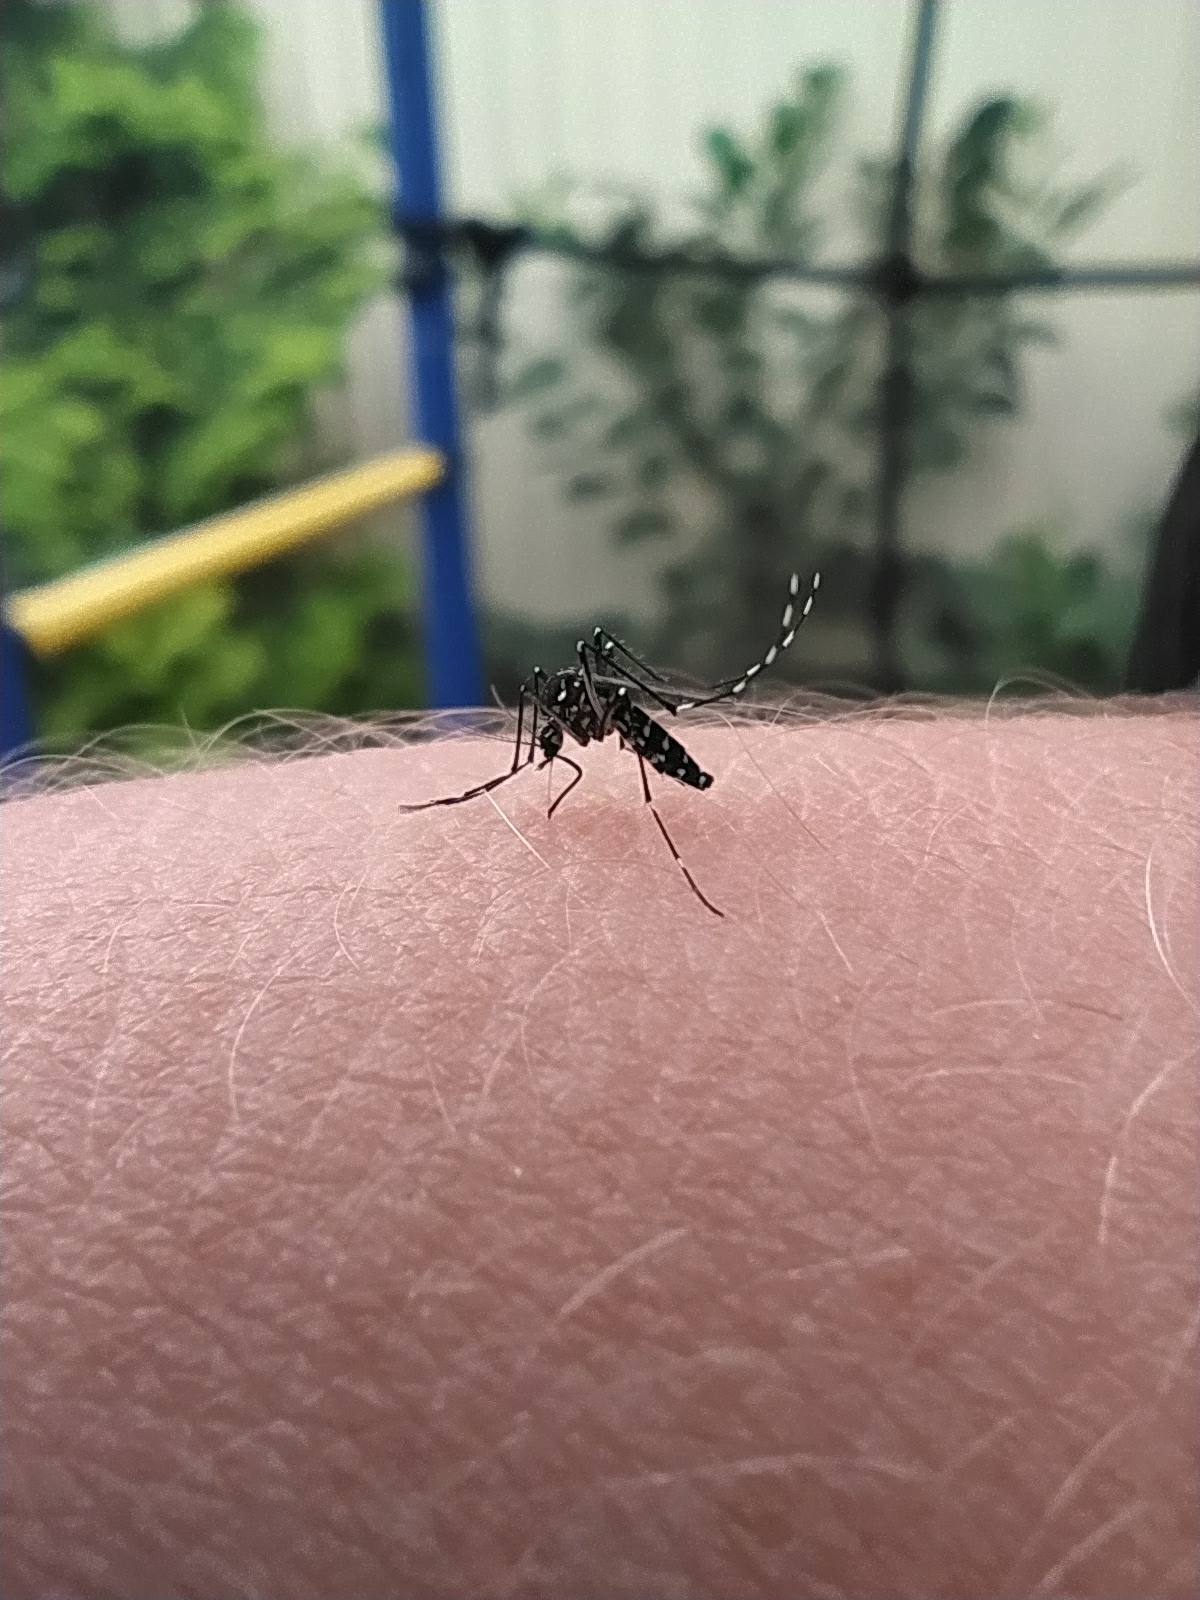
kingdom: Animalia
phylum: Arthropoda
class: Insecta
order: Diptera
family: Culicidae
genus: Aedes
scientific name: Aedes albopictus
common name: Tiger mosquito
